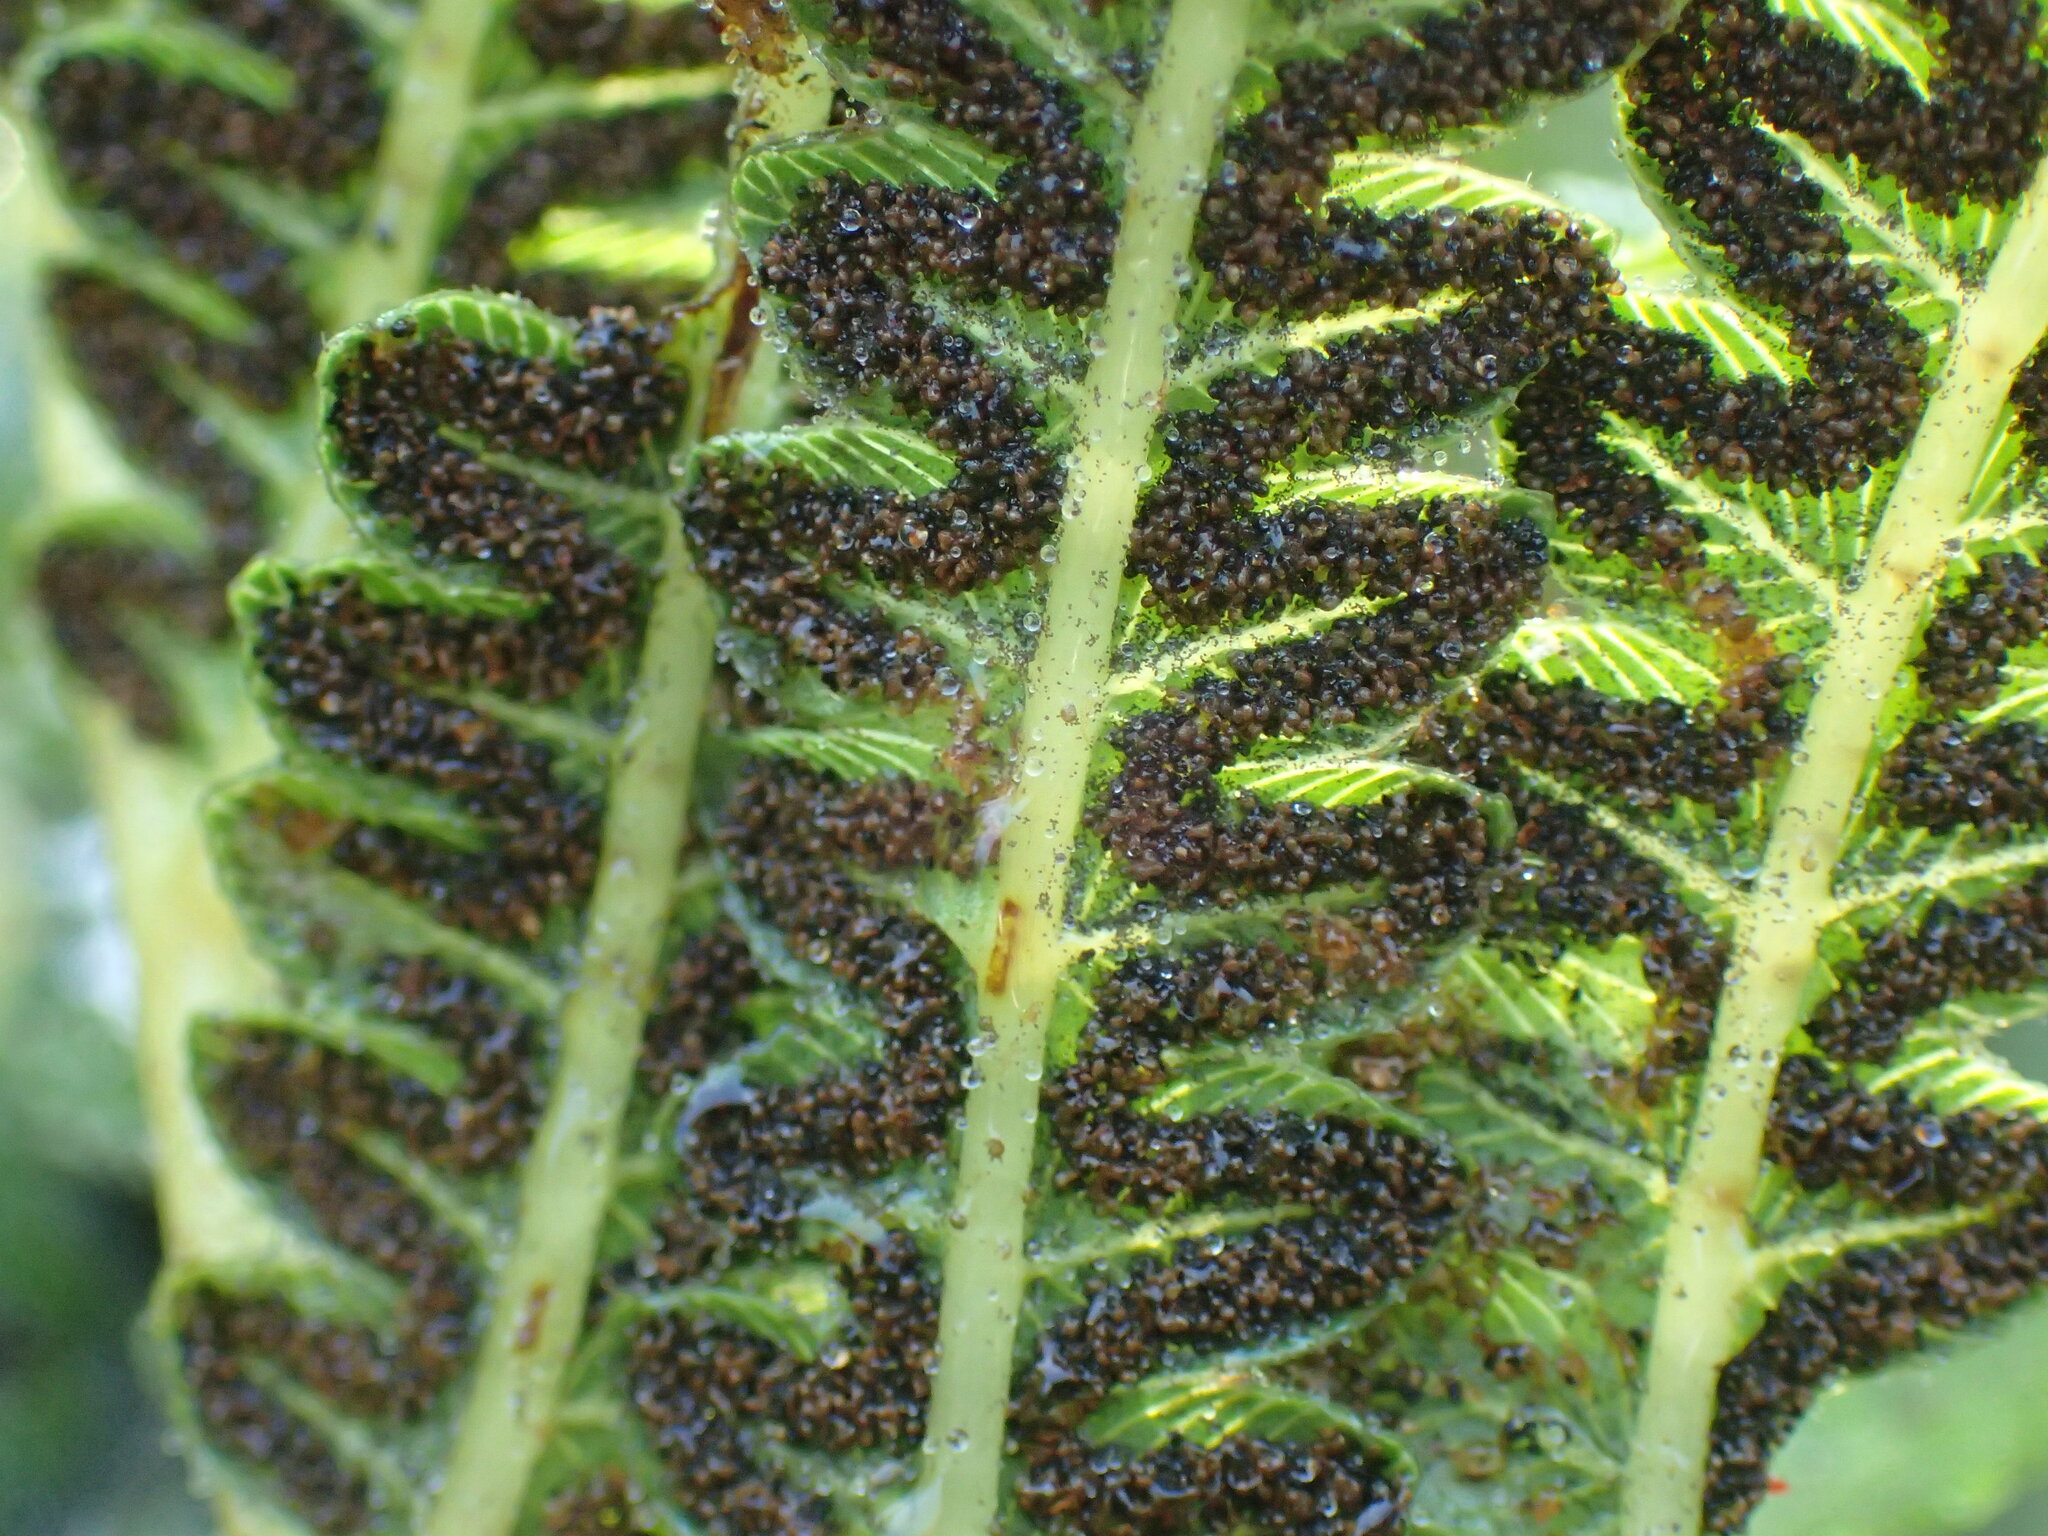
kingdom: Plantae
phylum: Tracheophyta
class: Polypodiopsida
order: Polypodiales
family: Thelypteridaceae
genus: Cyclosorus
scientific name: Cyclosorus interruptus
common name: Neke fern
